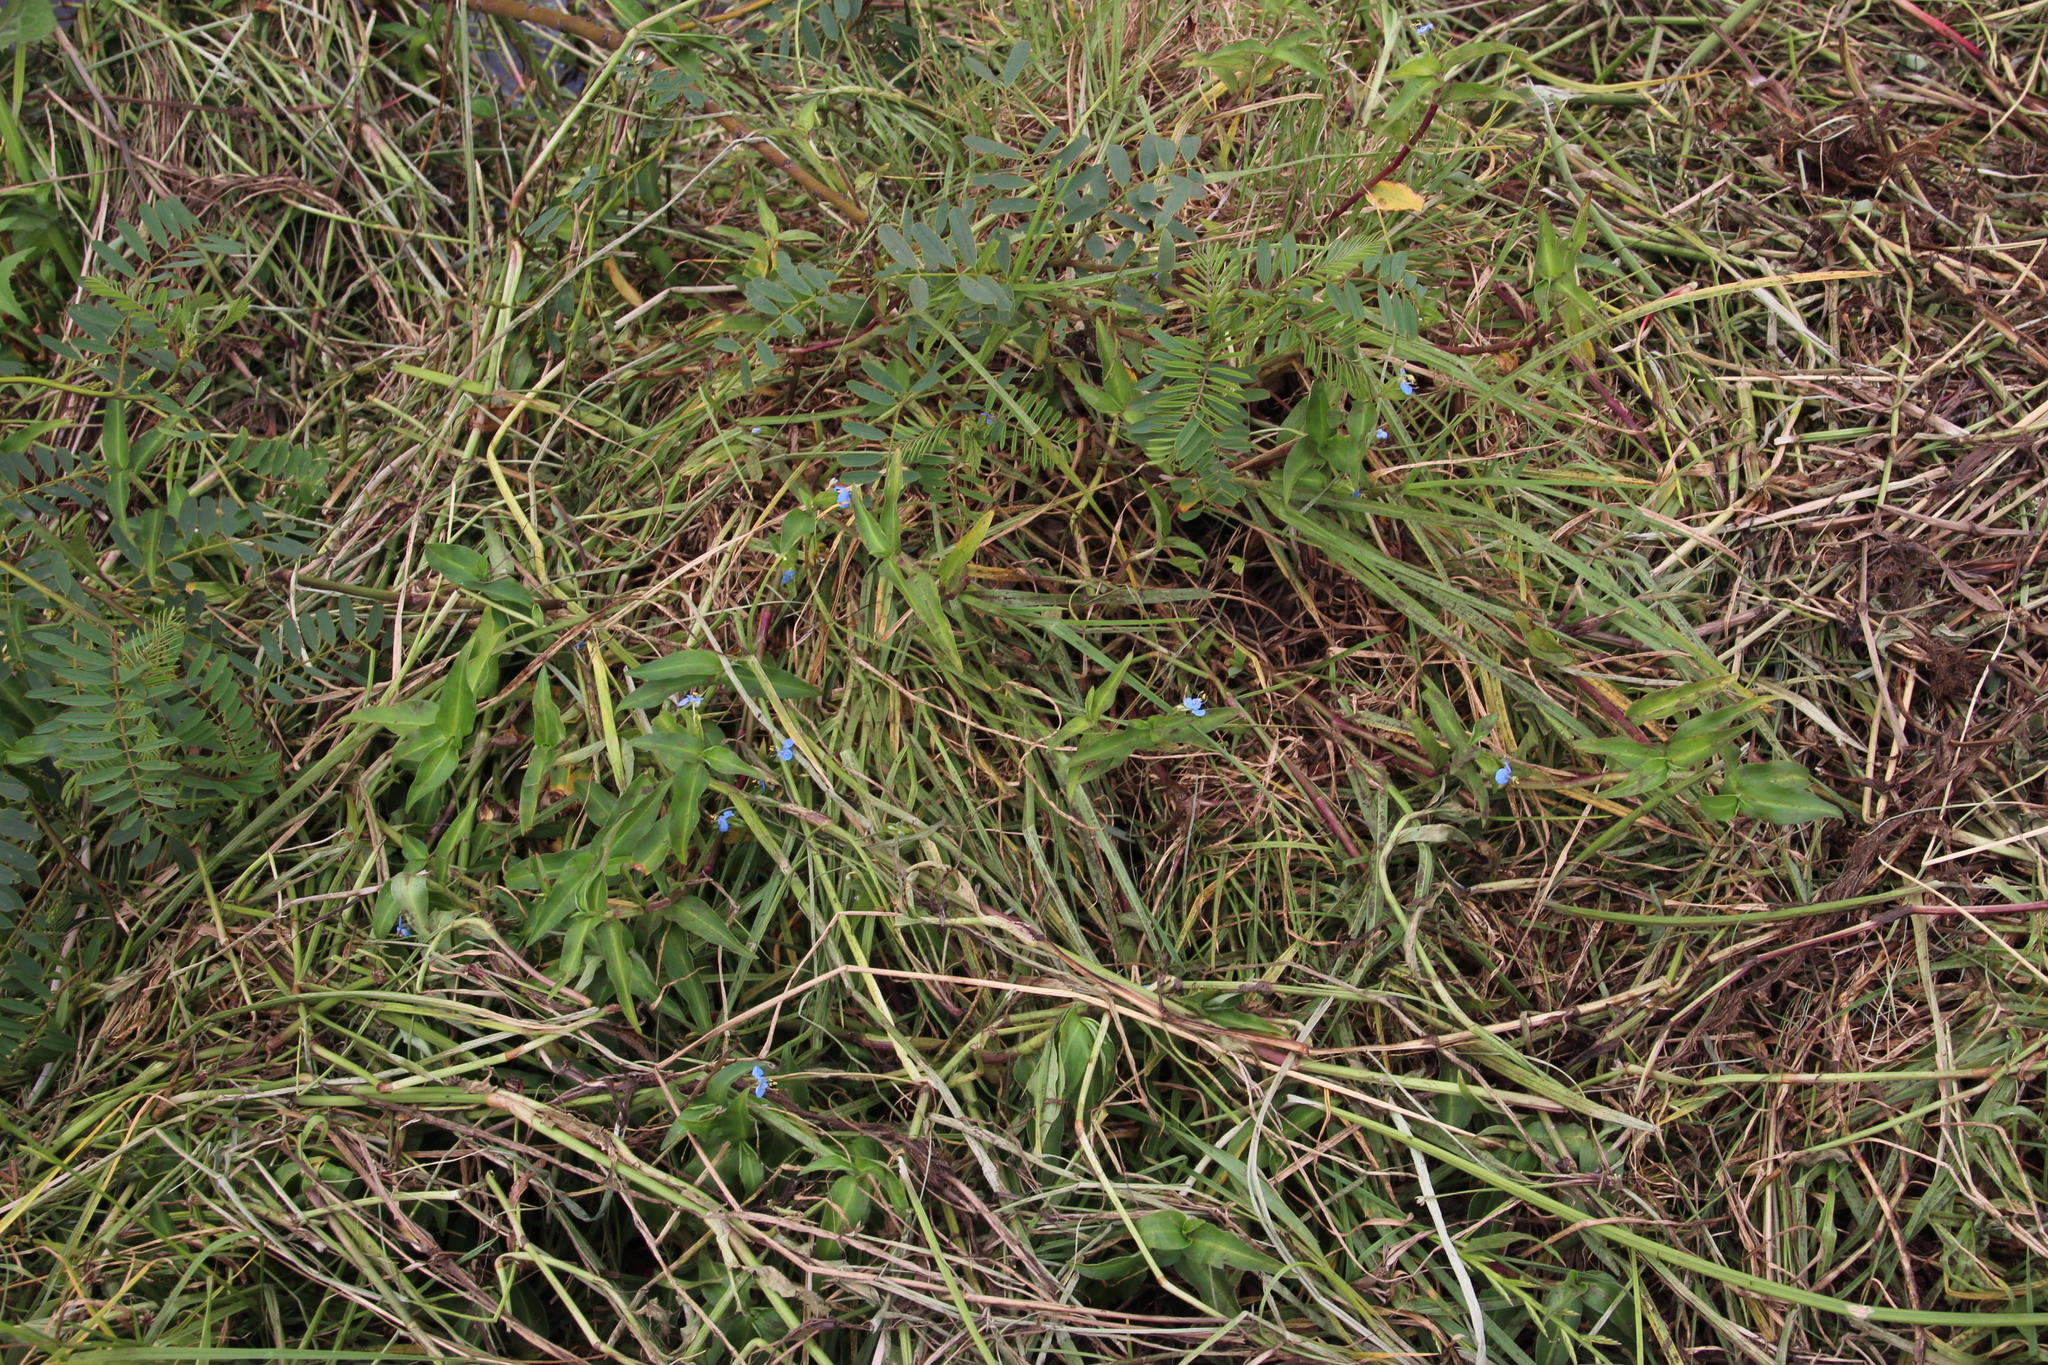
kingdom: Plantae
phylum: Tracheophyta
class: Liliopsida
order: Commelinales
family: Commelinaceae
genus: Commelina
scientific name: Commelina diffusa
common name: Climbing dayflower
